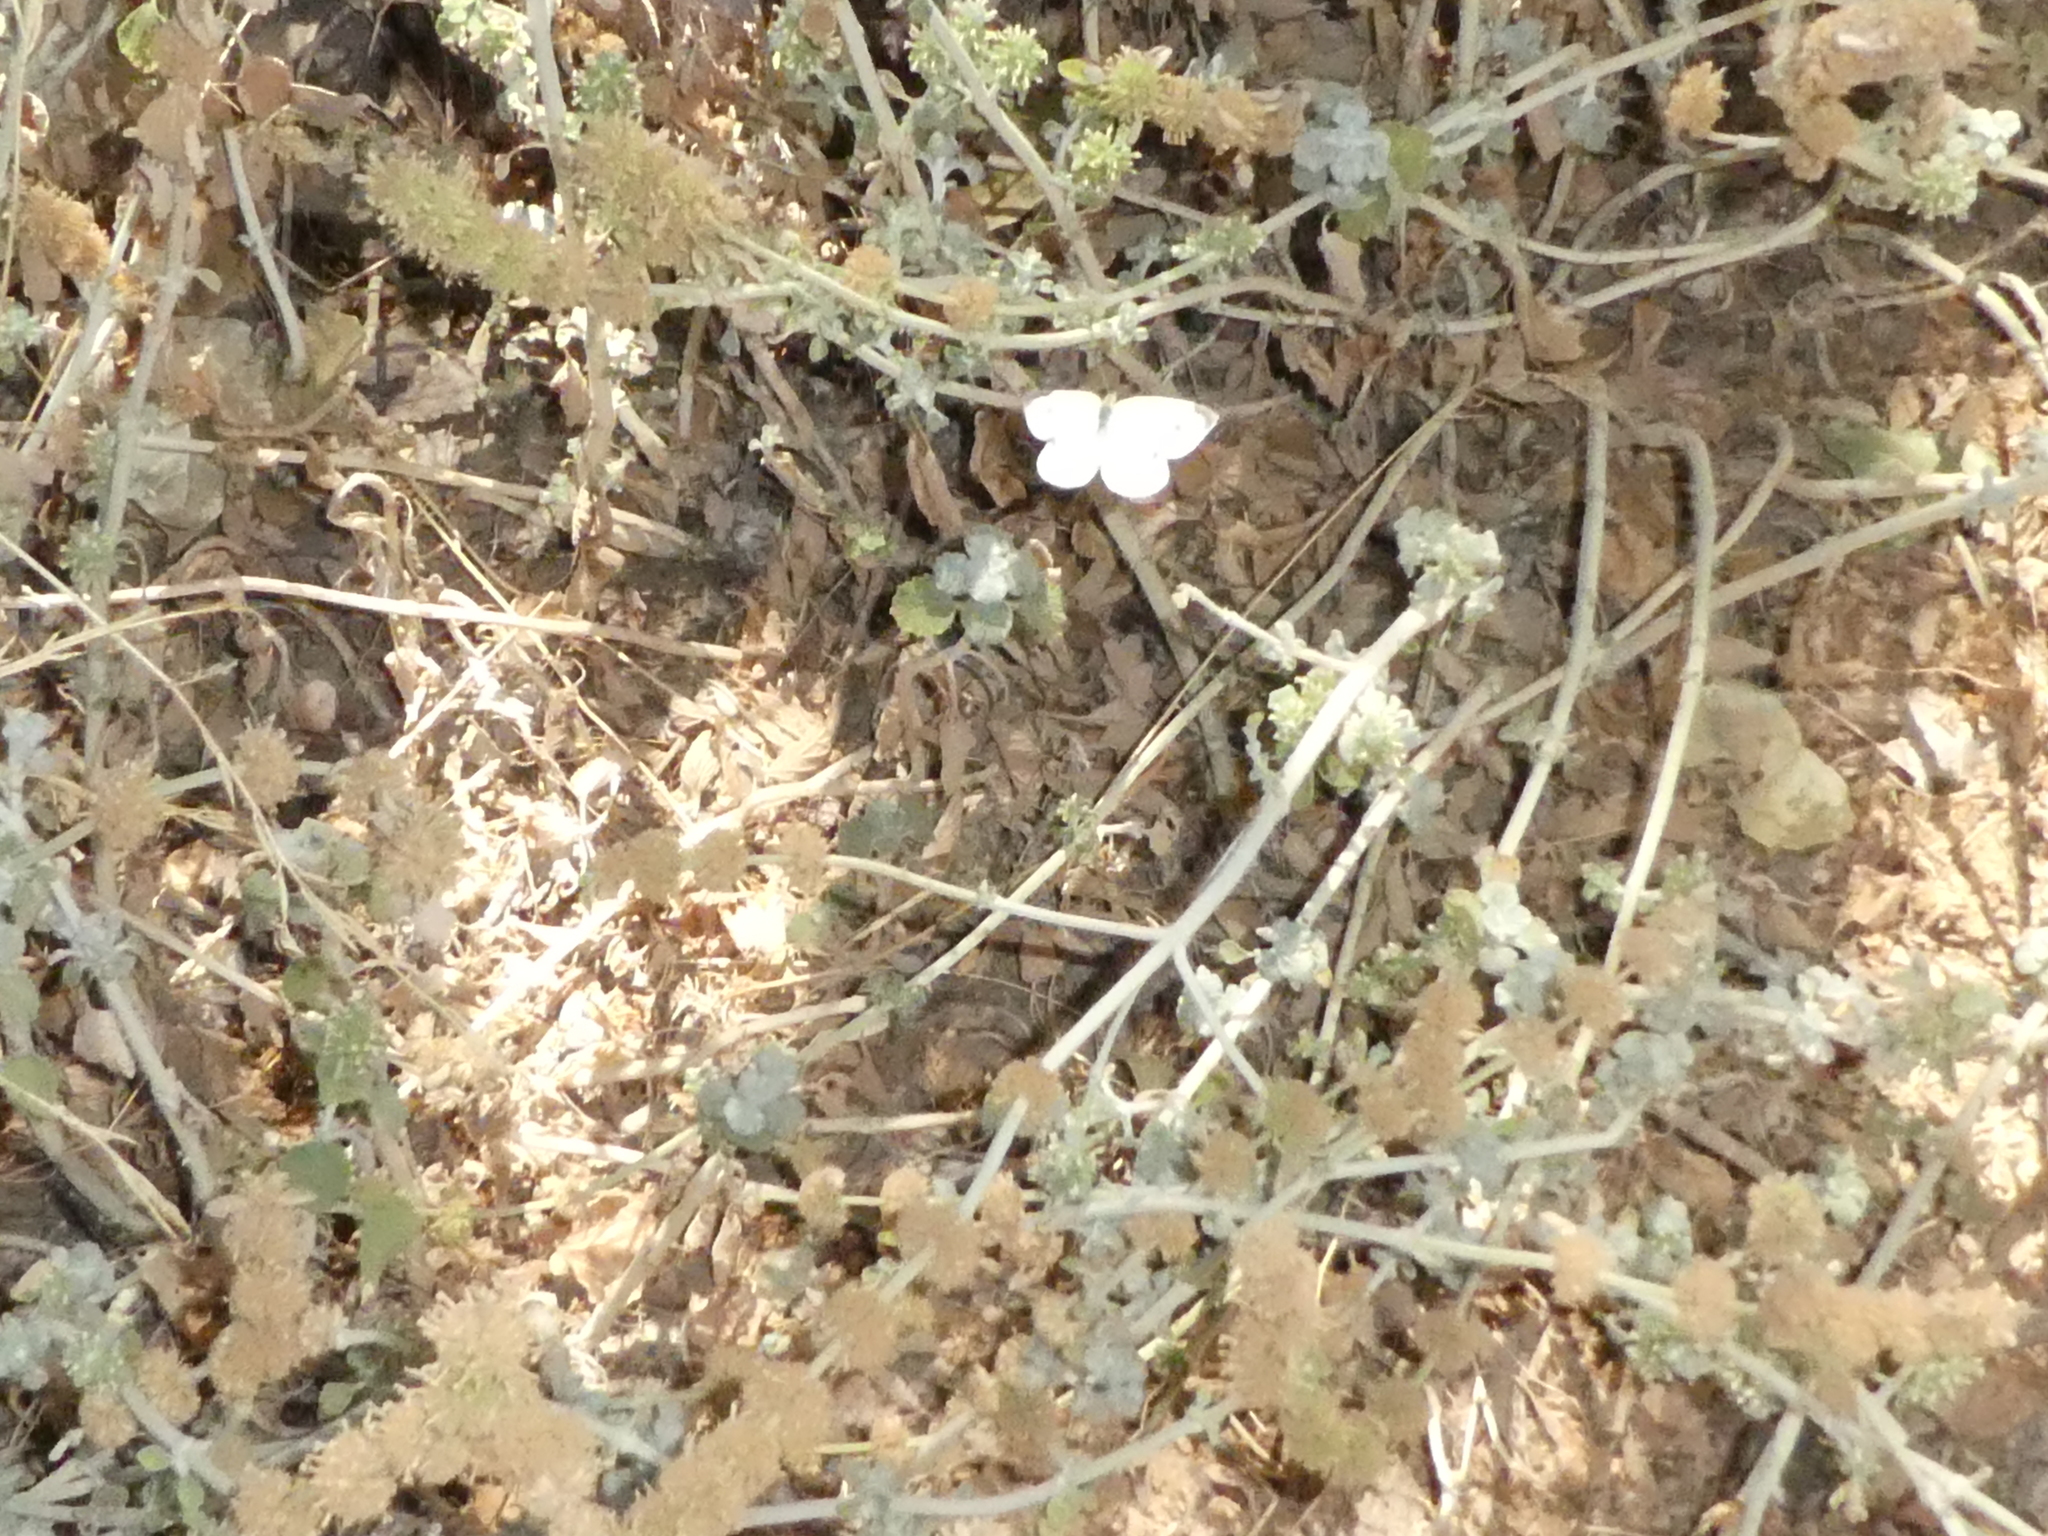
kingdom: Animalia
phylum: Arthropoda
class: Insecta
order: Lepidoptera
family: Pieridae
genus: Pieris
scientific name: Pieris rapae
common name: Small white
